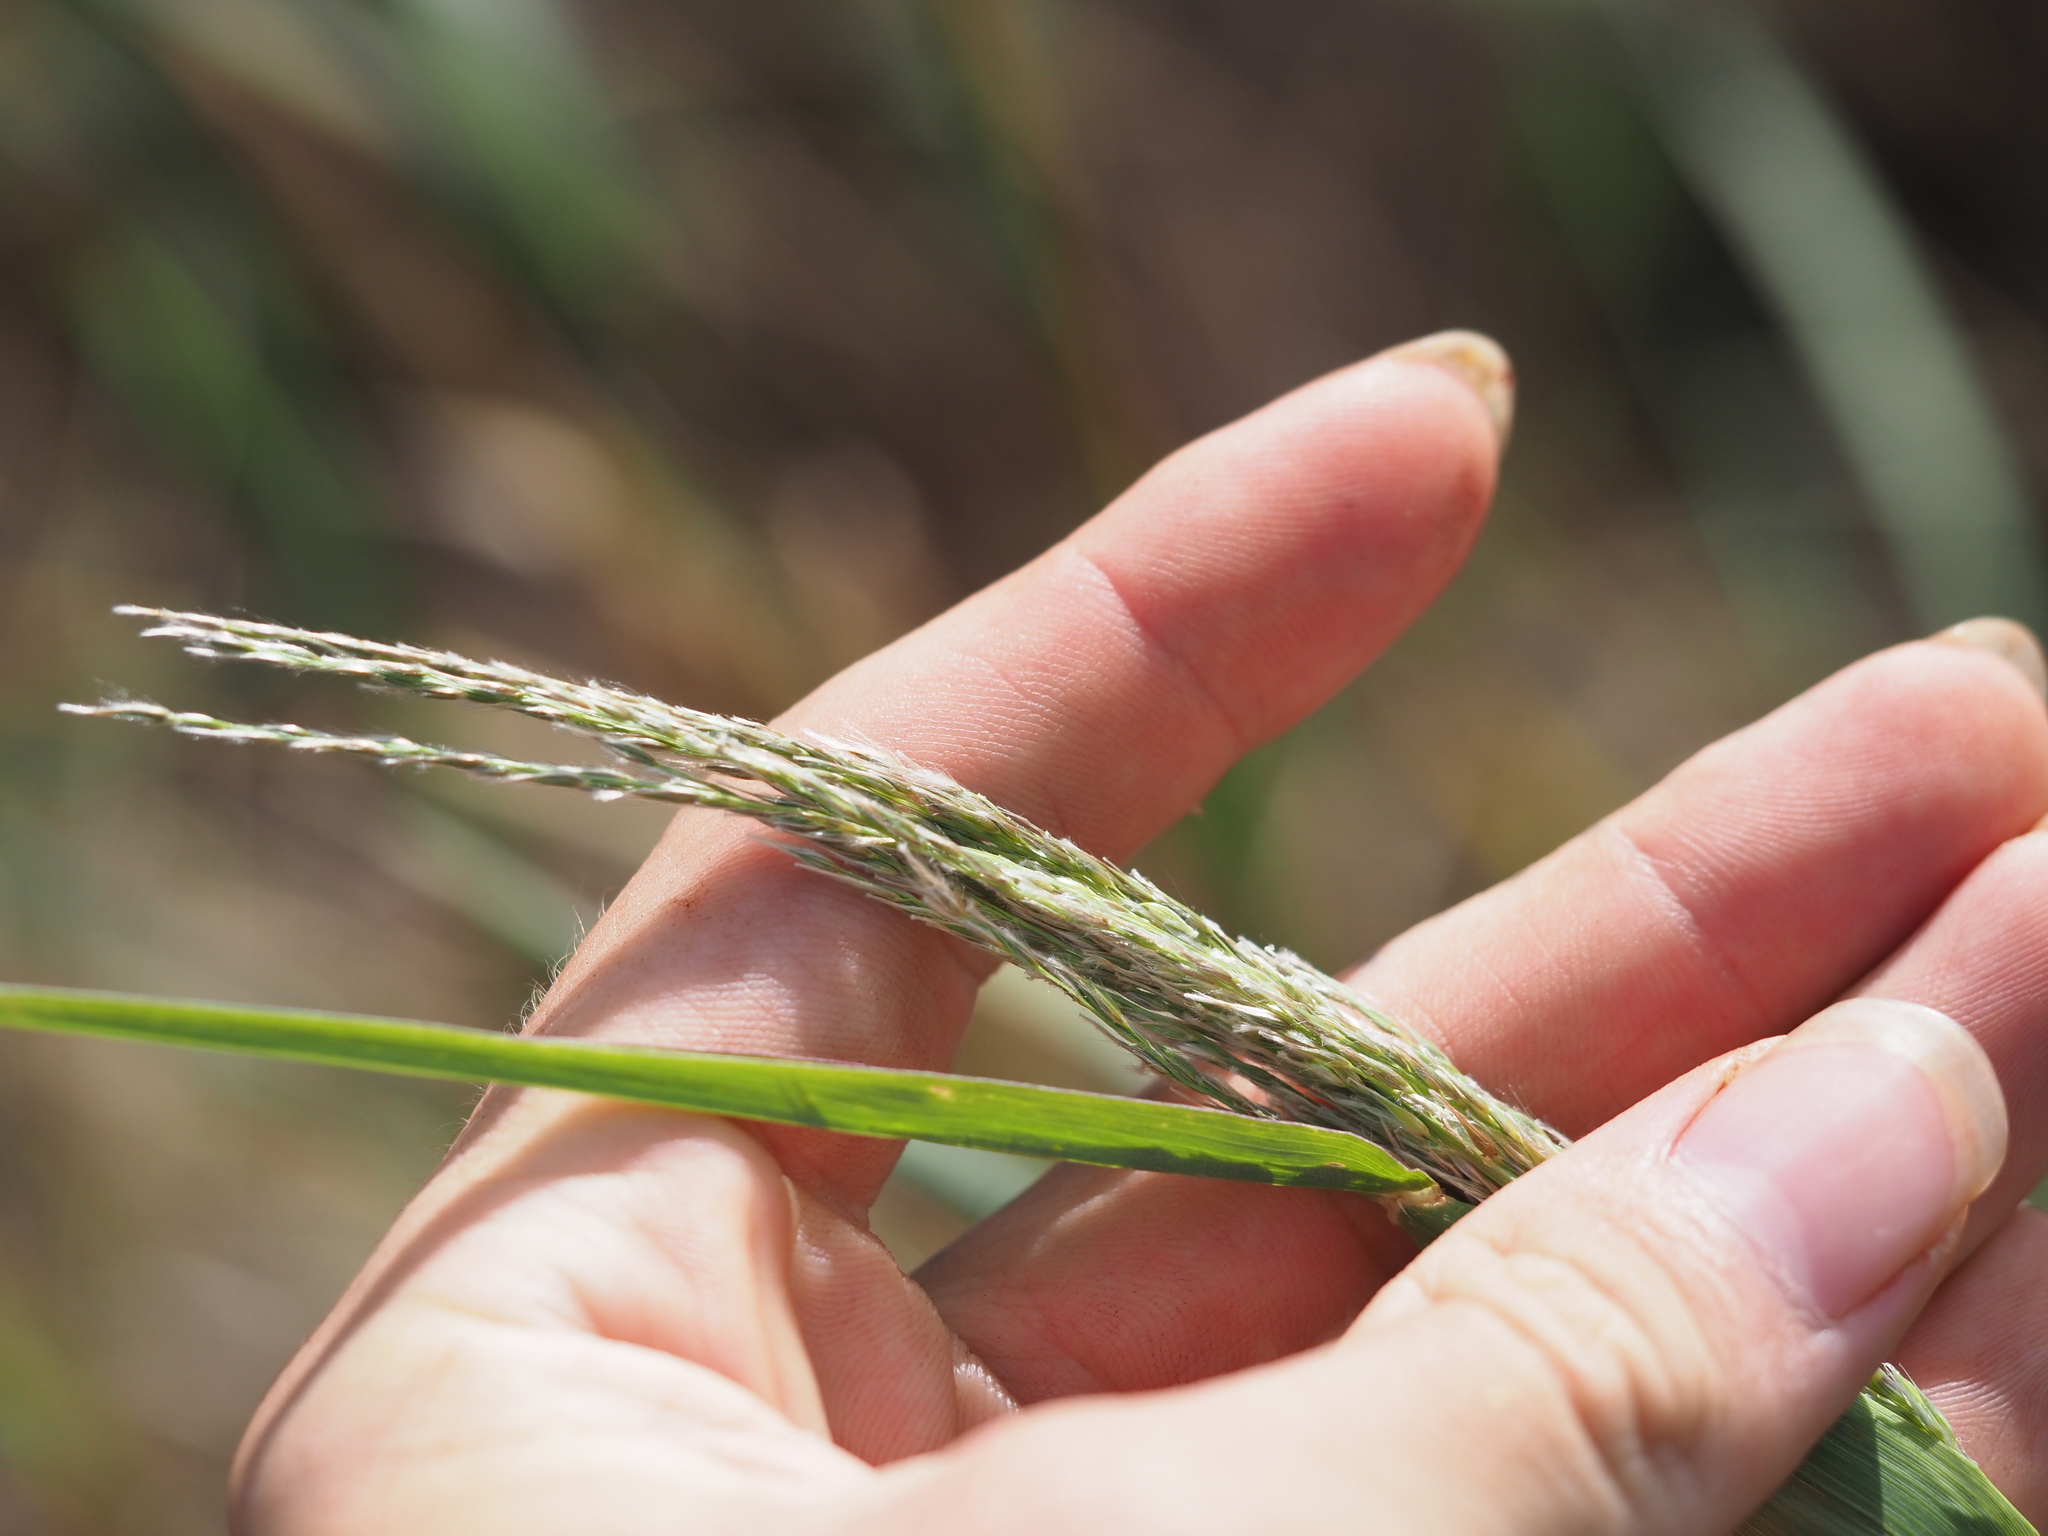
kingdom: Plantae
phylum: Tracheophyta
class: Liliopsida
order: Poales
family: Poaceae
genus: Digitaria
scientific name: Digitaria insularis
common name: Sourgrass
